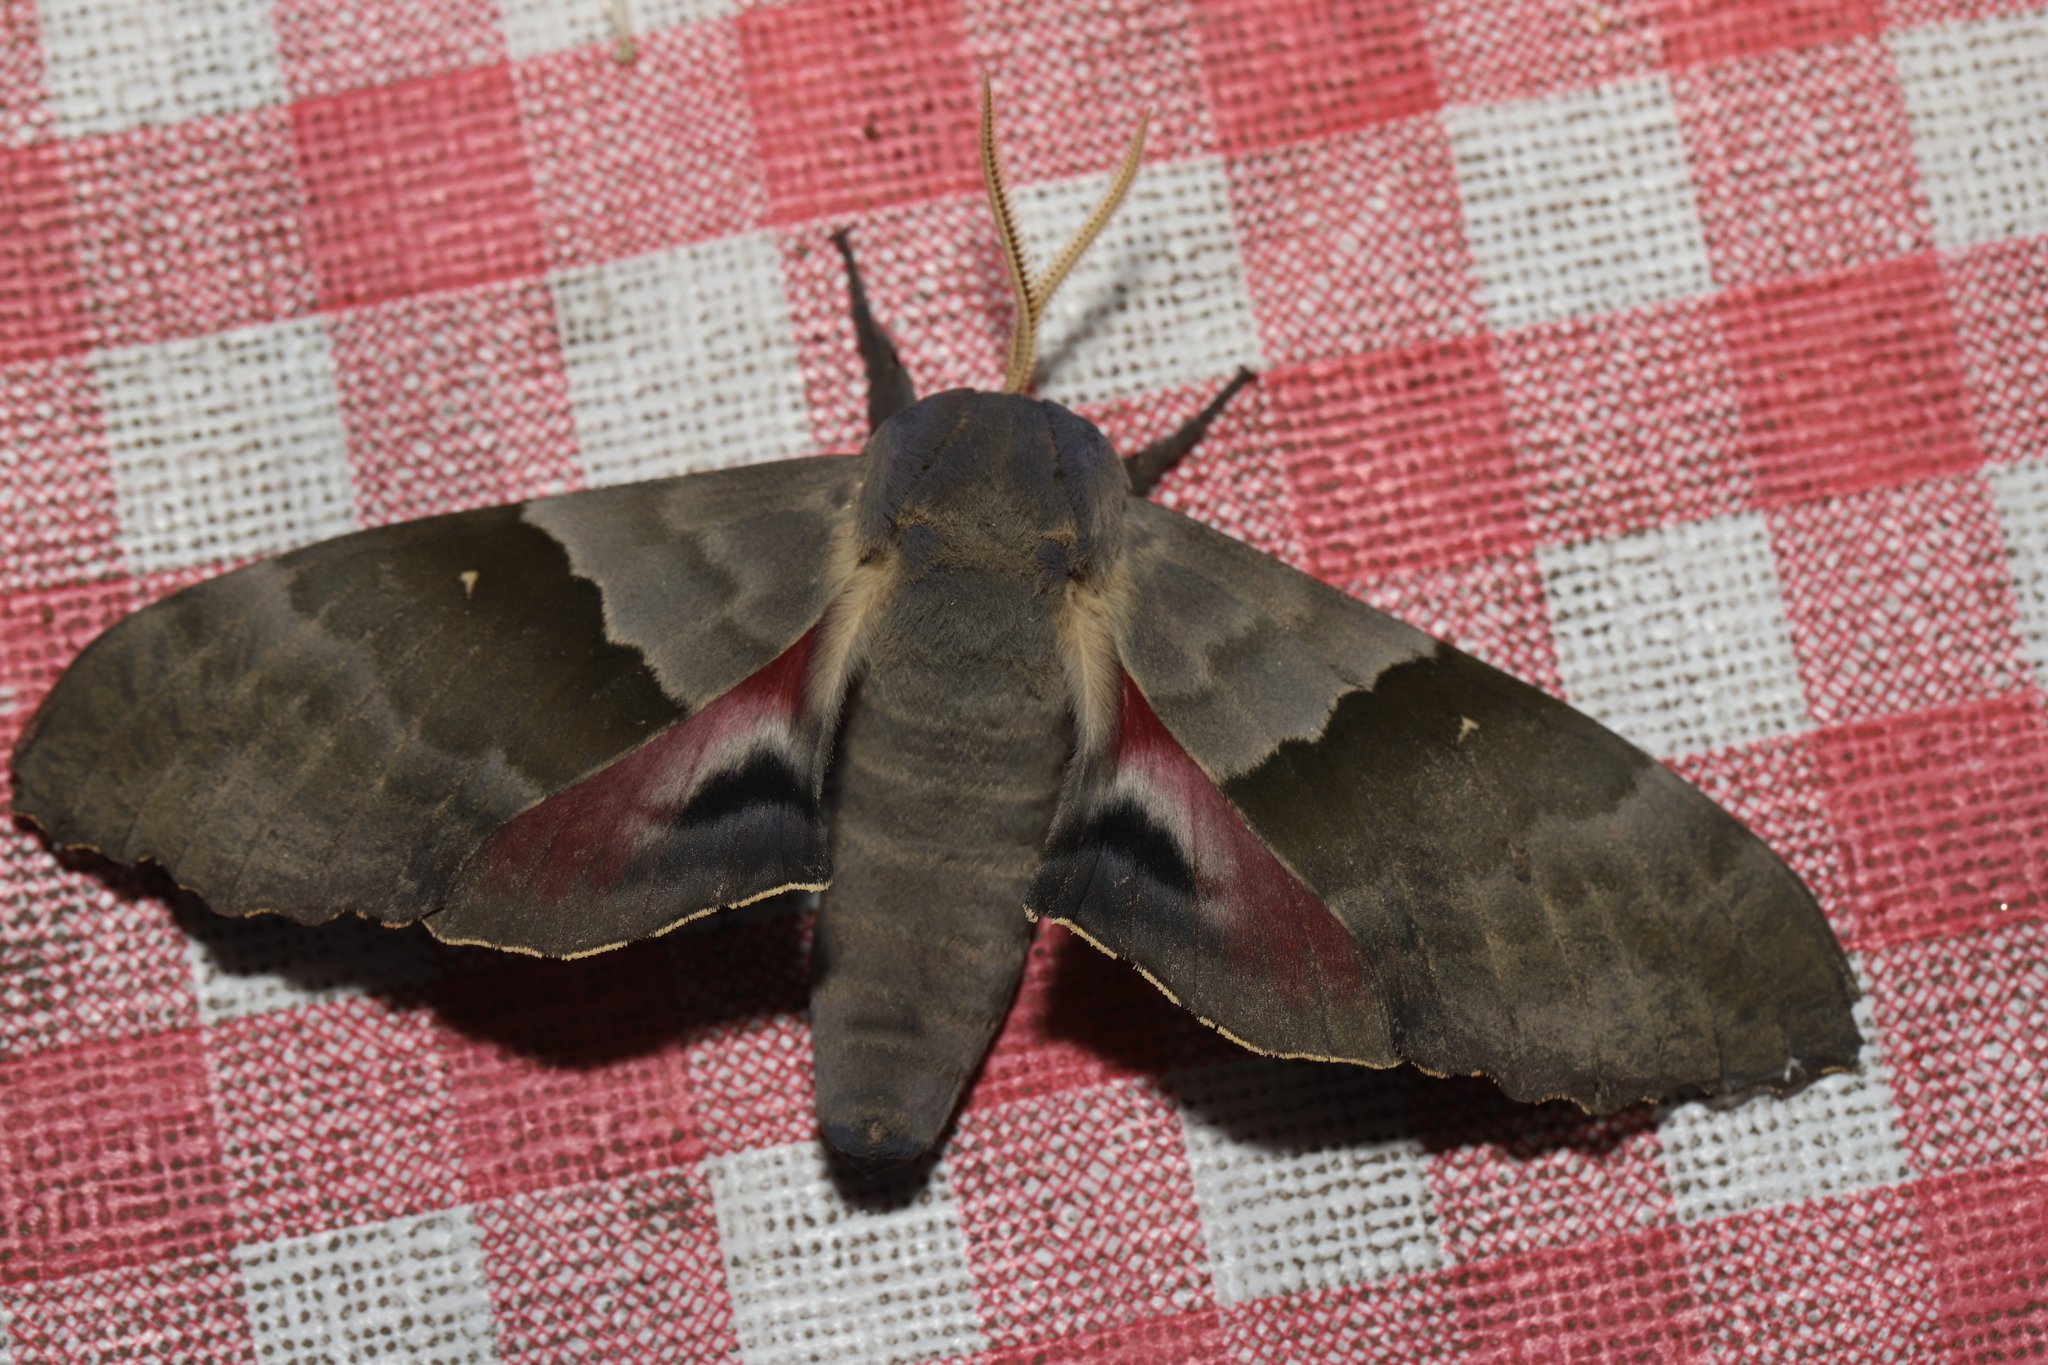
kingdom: Animalia
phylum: Arthropoda
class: Insecta
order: Lepidoptera
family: Sphingidae
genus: Pachysphinx
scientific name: Pachysphinx modesta
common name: Big poplar sphinx
